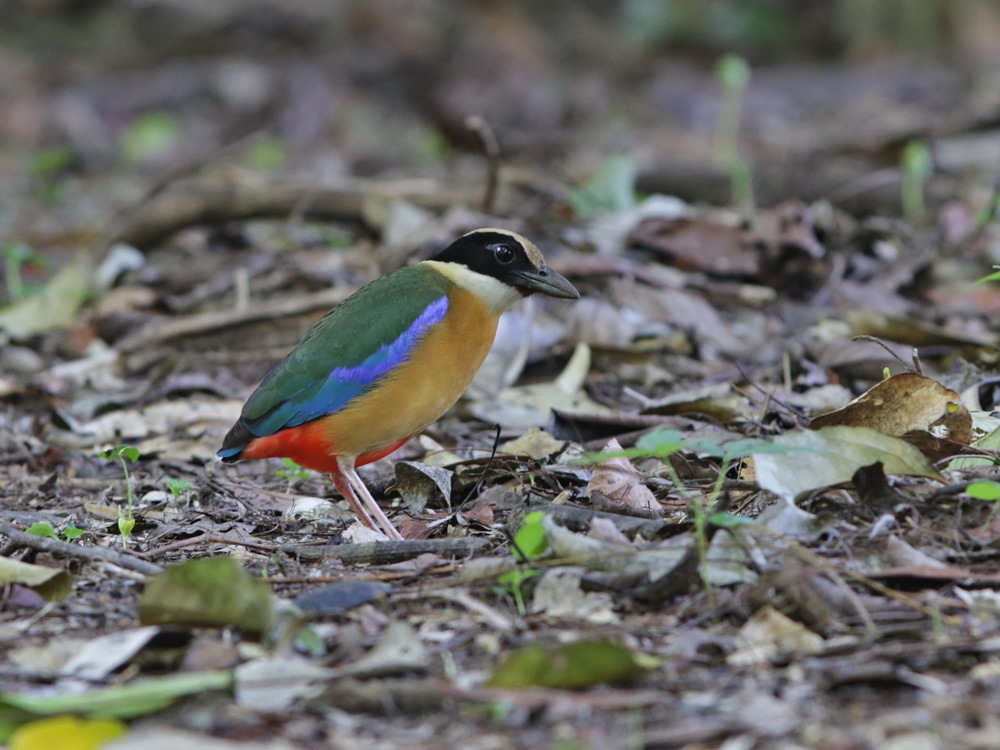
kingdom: Animalia
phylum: Chordata
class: Aves
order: Passeriformes
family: Pittidae
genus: Pitta
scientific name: Pitta moluccensis
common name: Blue-winged pitta
